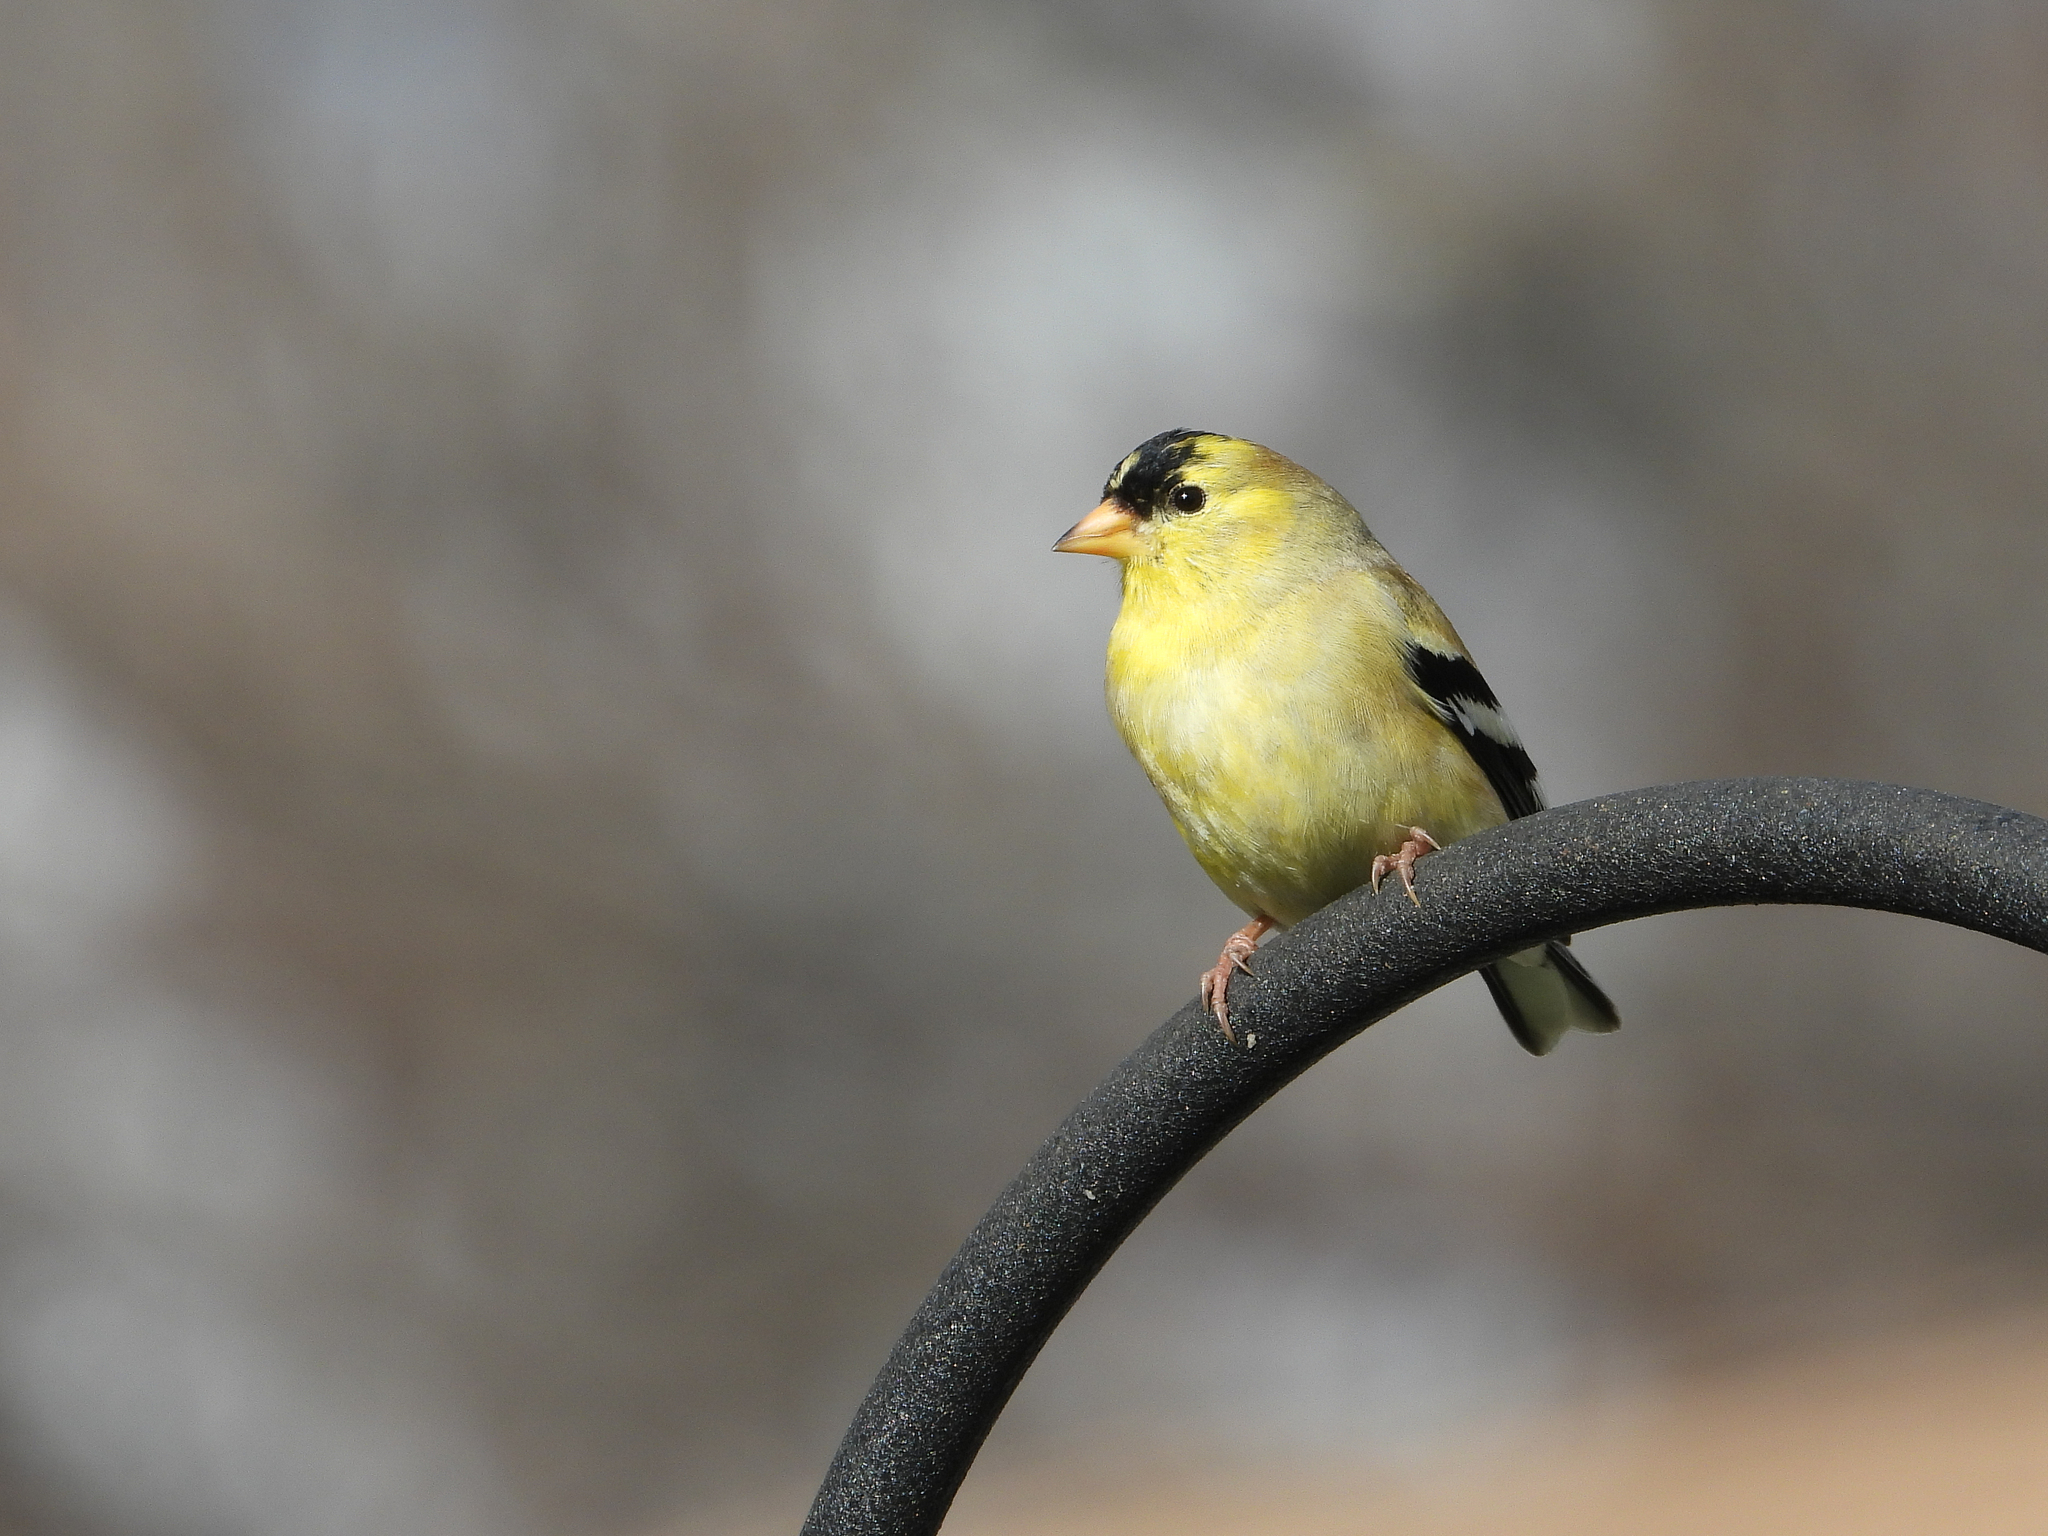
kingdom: Animalia
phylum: Chordata
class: Aves
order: Passeriformes
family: Fringillidae
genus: Spinus
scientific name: Spinus tristis
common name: American goldfinch
